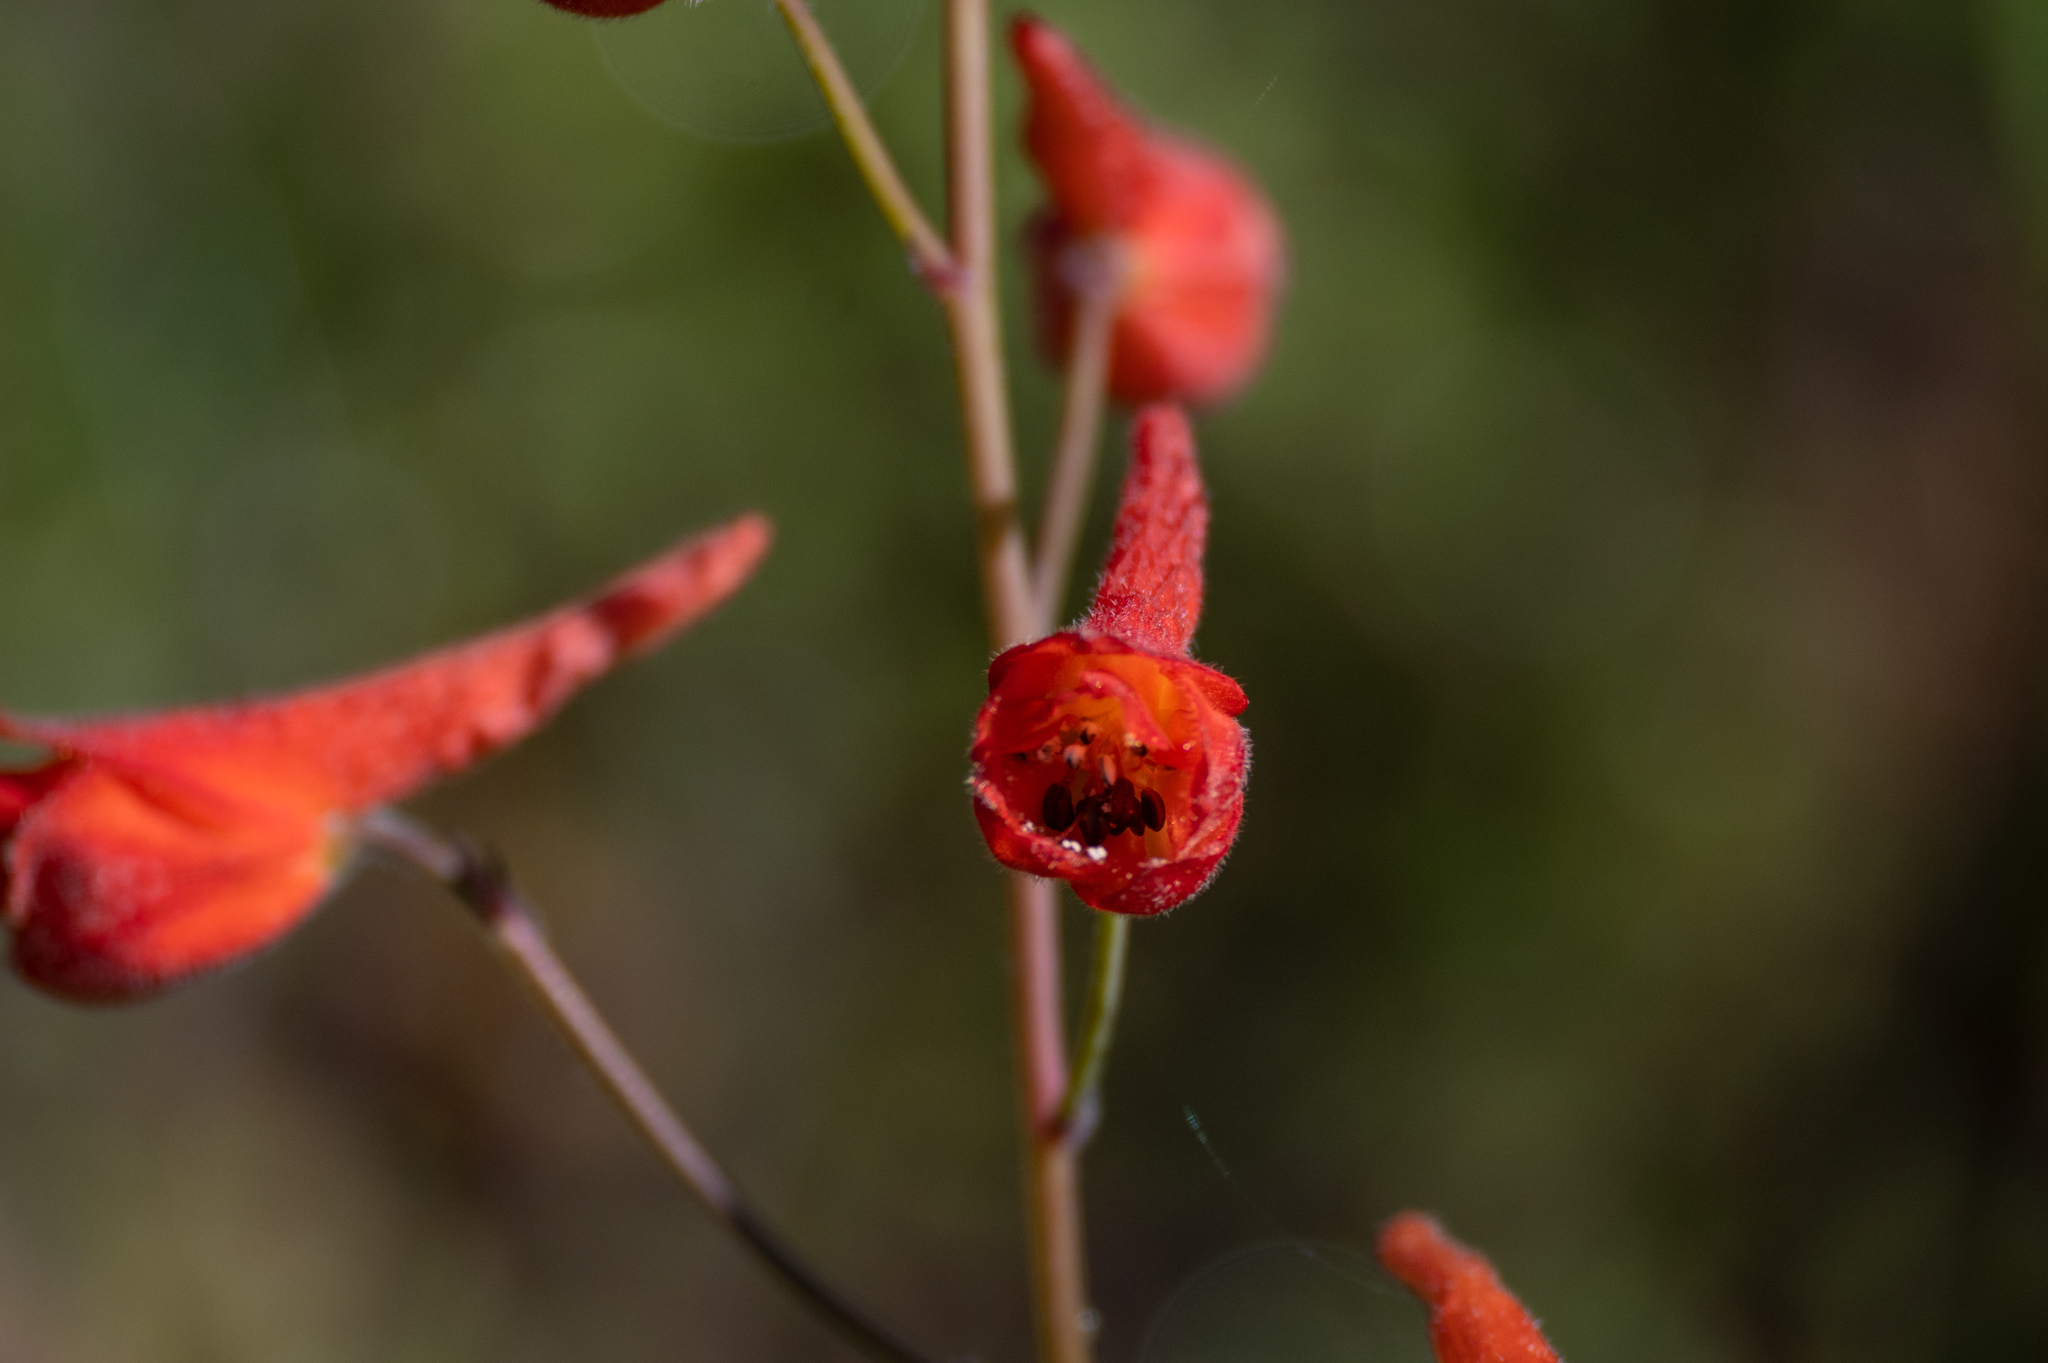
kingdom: Plantae
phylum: Tracheophyta
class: Magnoliopsida
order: Ranunculales
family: Ranunculaceae
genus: Delphinium
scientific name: Delphinium nudicaule
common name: Red larkspur
